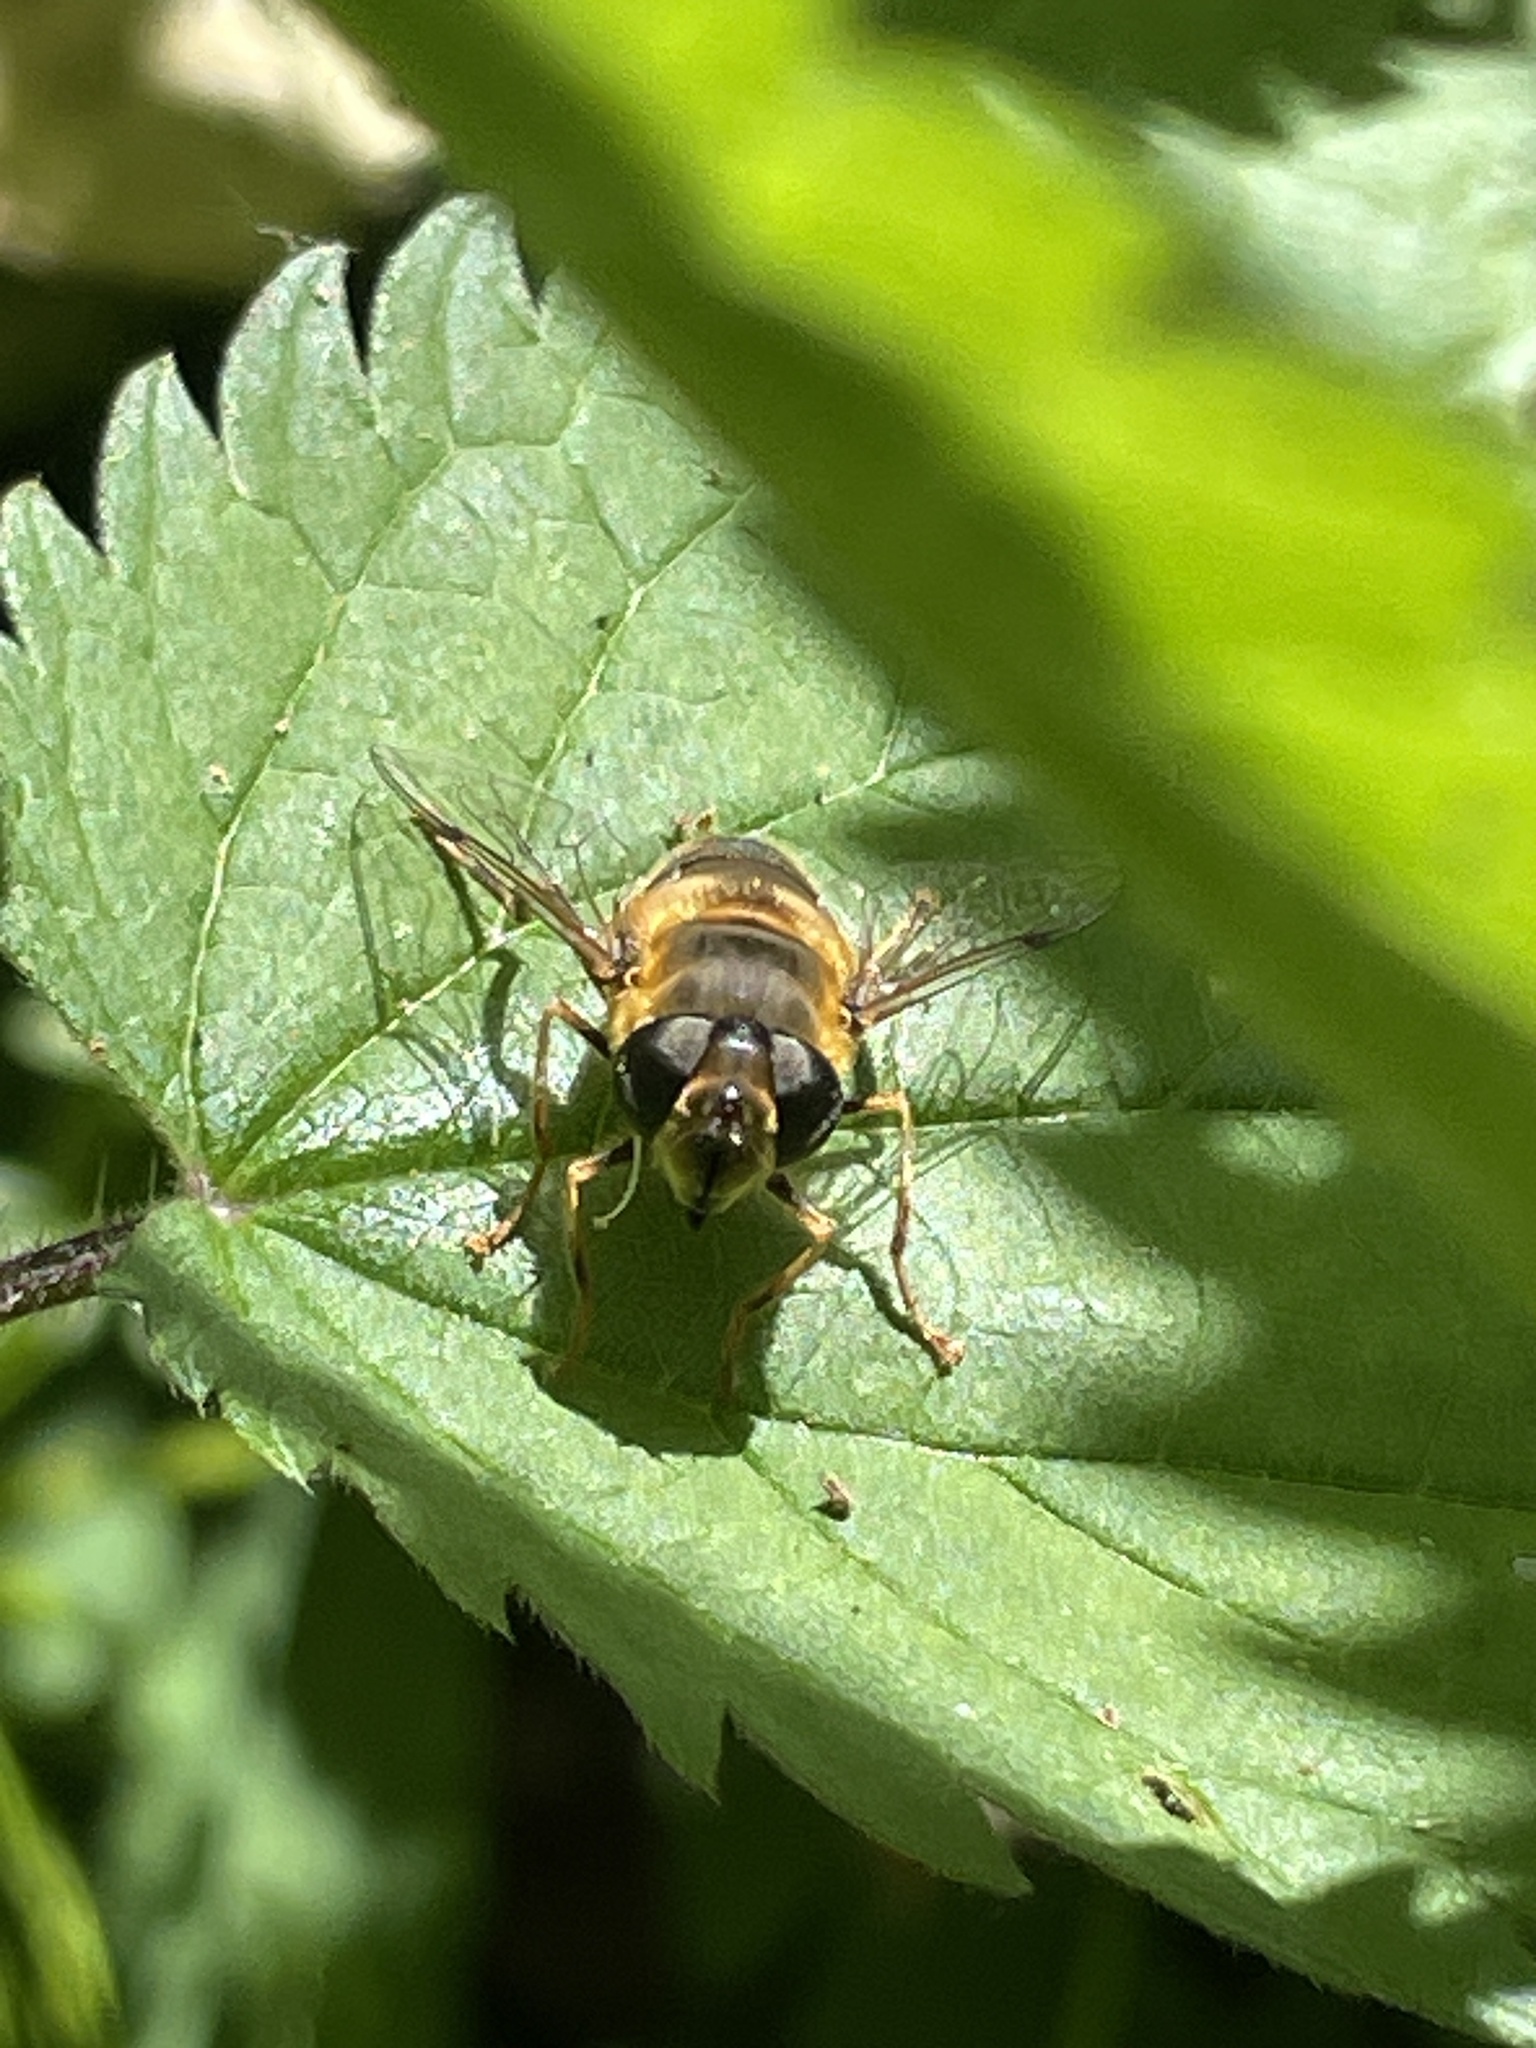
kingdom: Animalia
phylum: Arthropoda
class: Insecta
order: Diptera
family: Syrphidae
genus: Eristalis
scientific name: Eristalis pertinax
